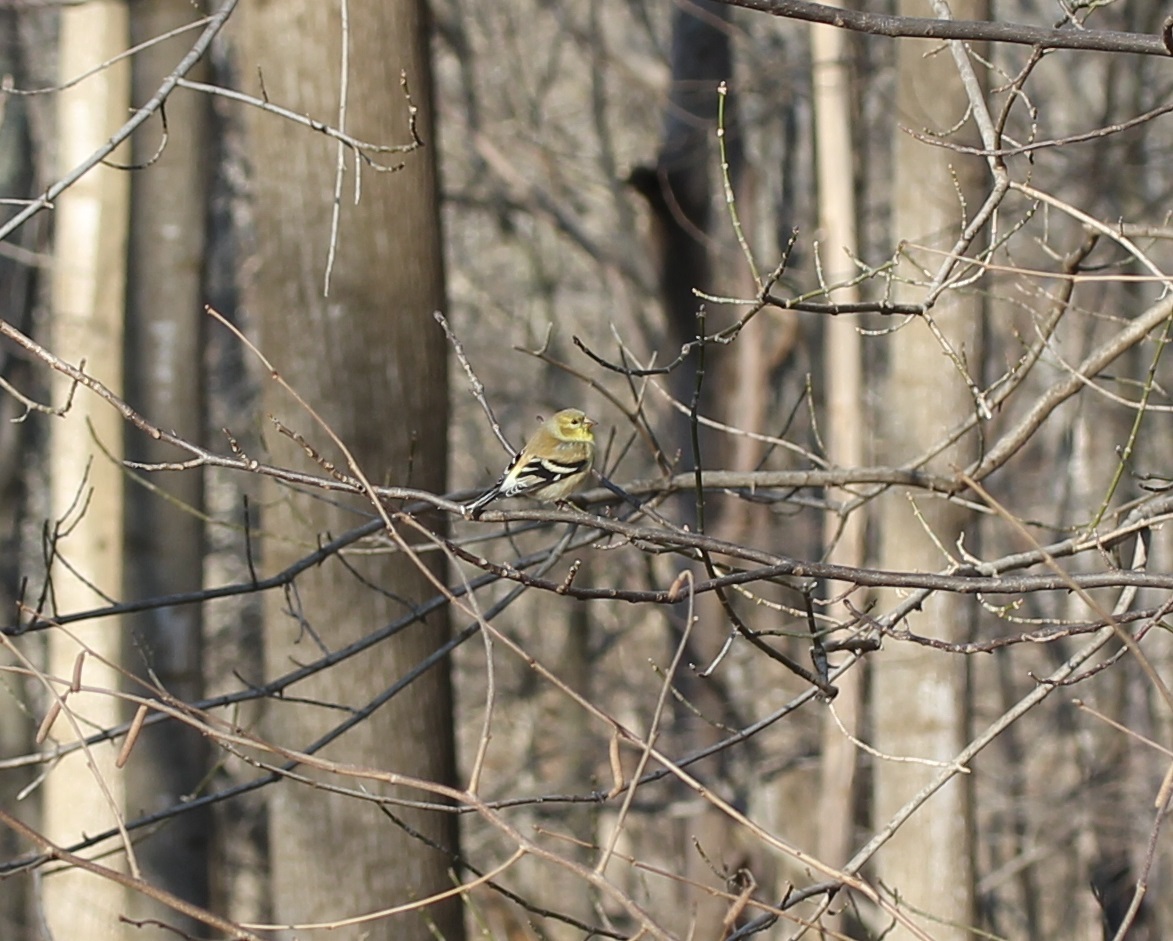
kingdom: Animalia
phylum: Chordata
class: Aves
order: Passeriformes
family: Fringillidae
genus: Spinus
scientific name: Spinus tristis
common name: American goldfinch
